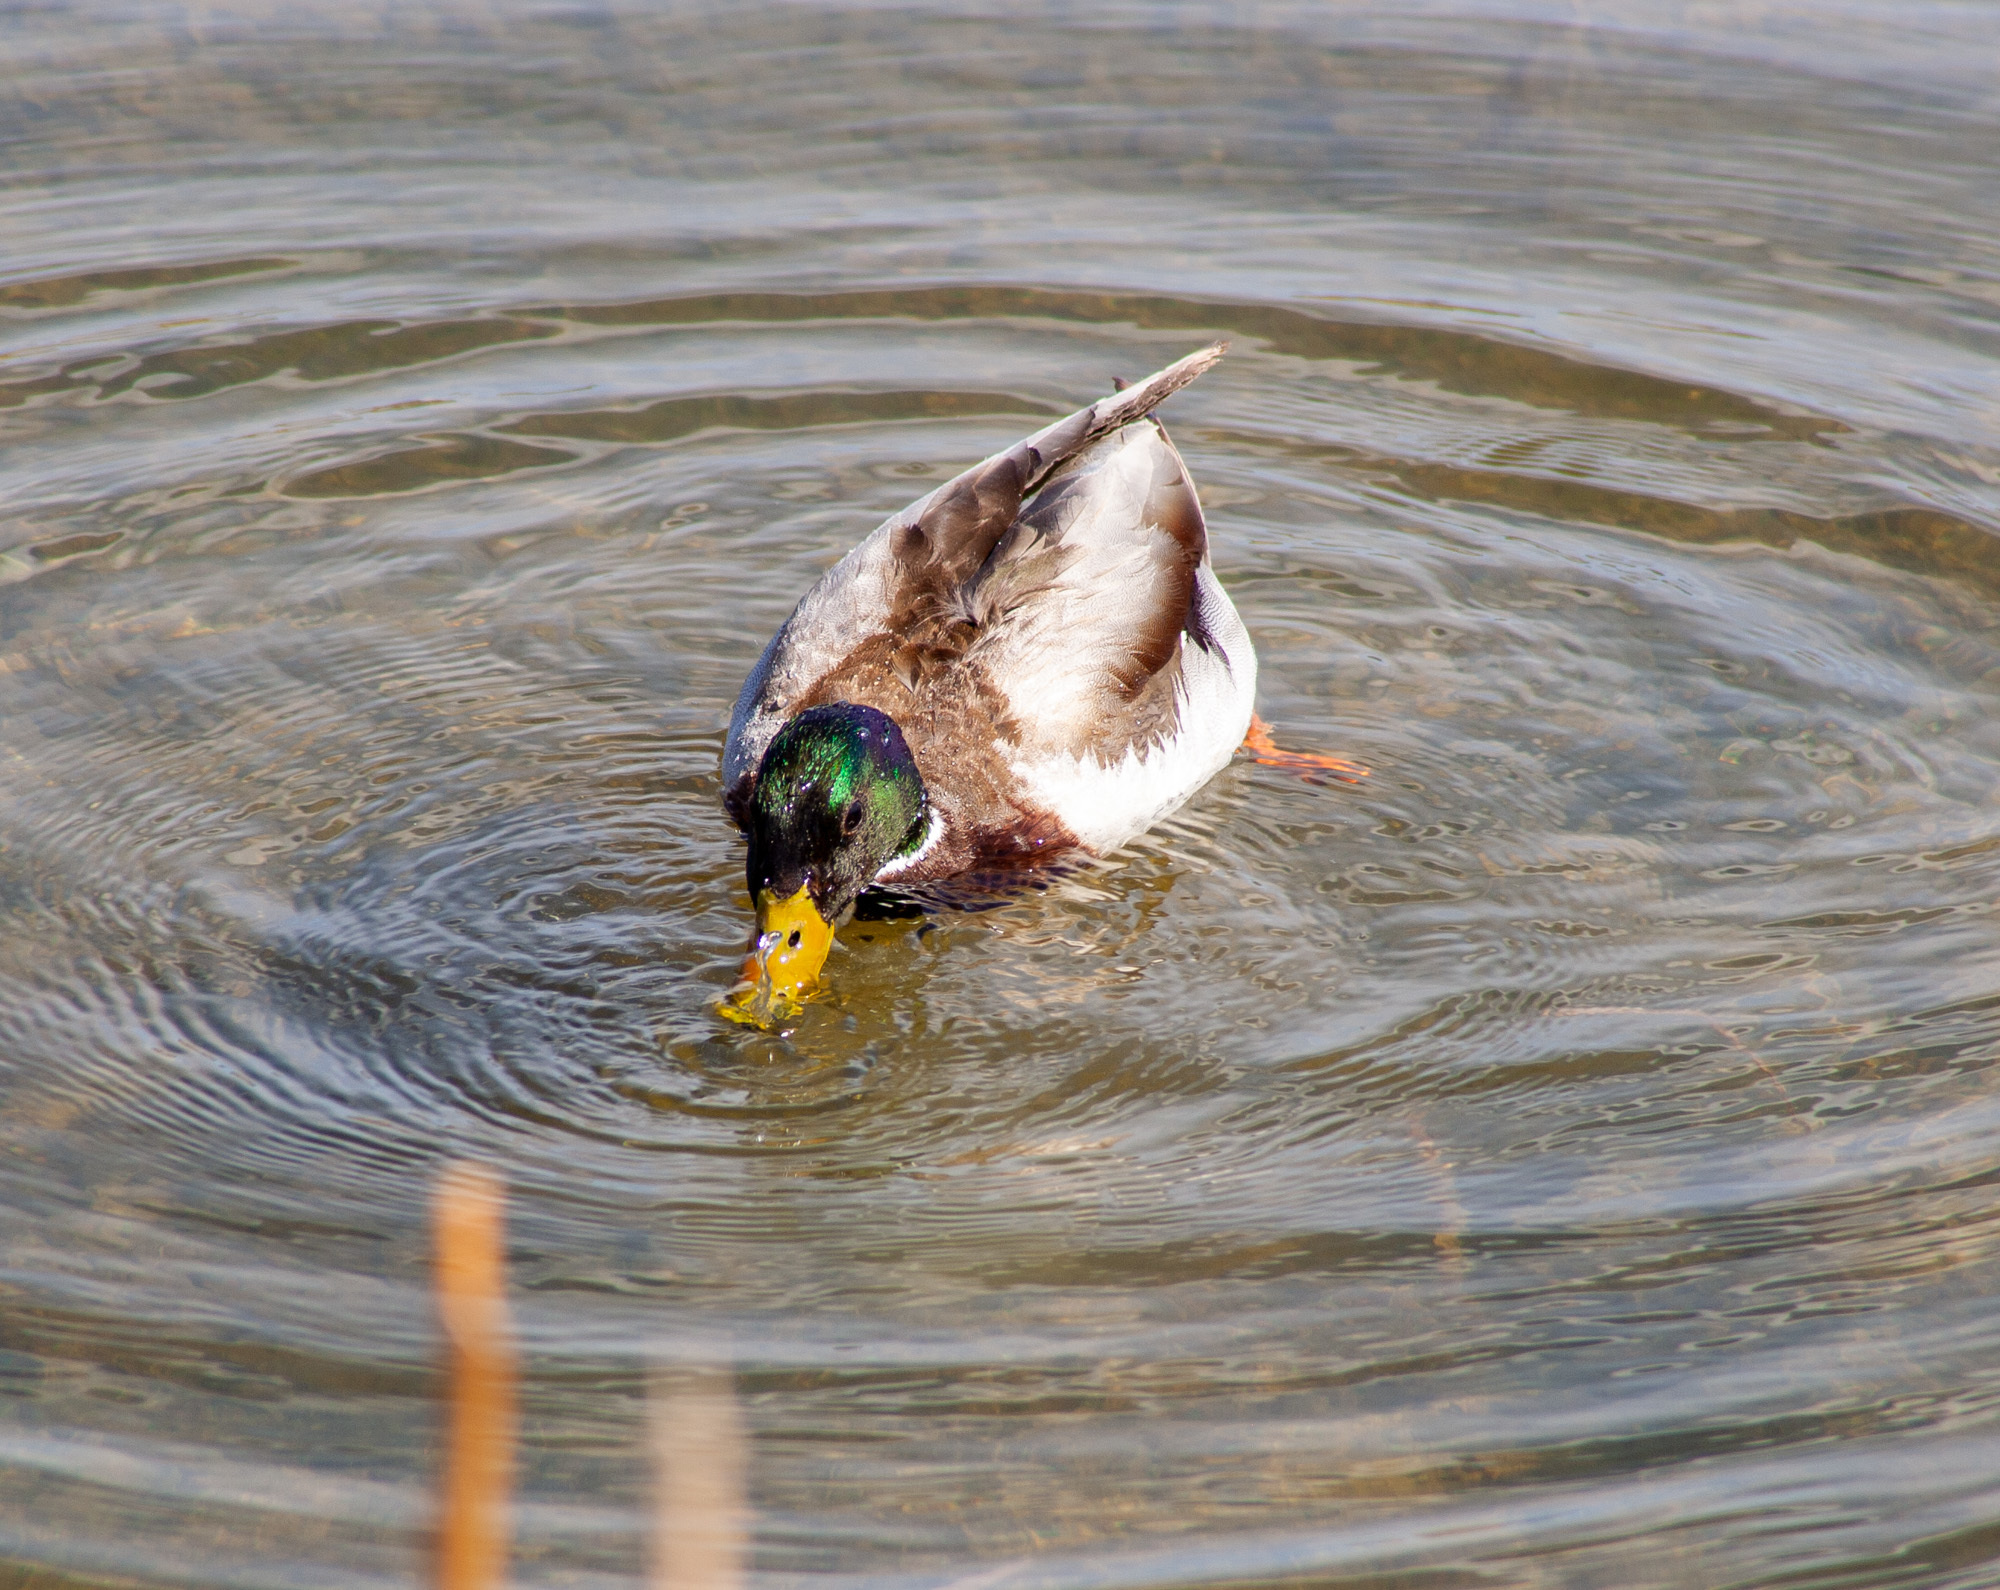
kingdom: Animalia
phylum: Chordata
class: Aves
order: Anseriformes
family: Anatidae
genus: Anas
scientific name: Anas platyrhynchos
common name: Mallard
